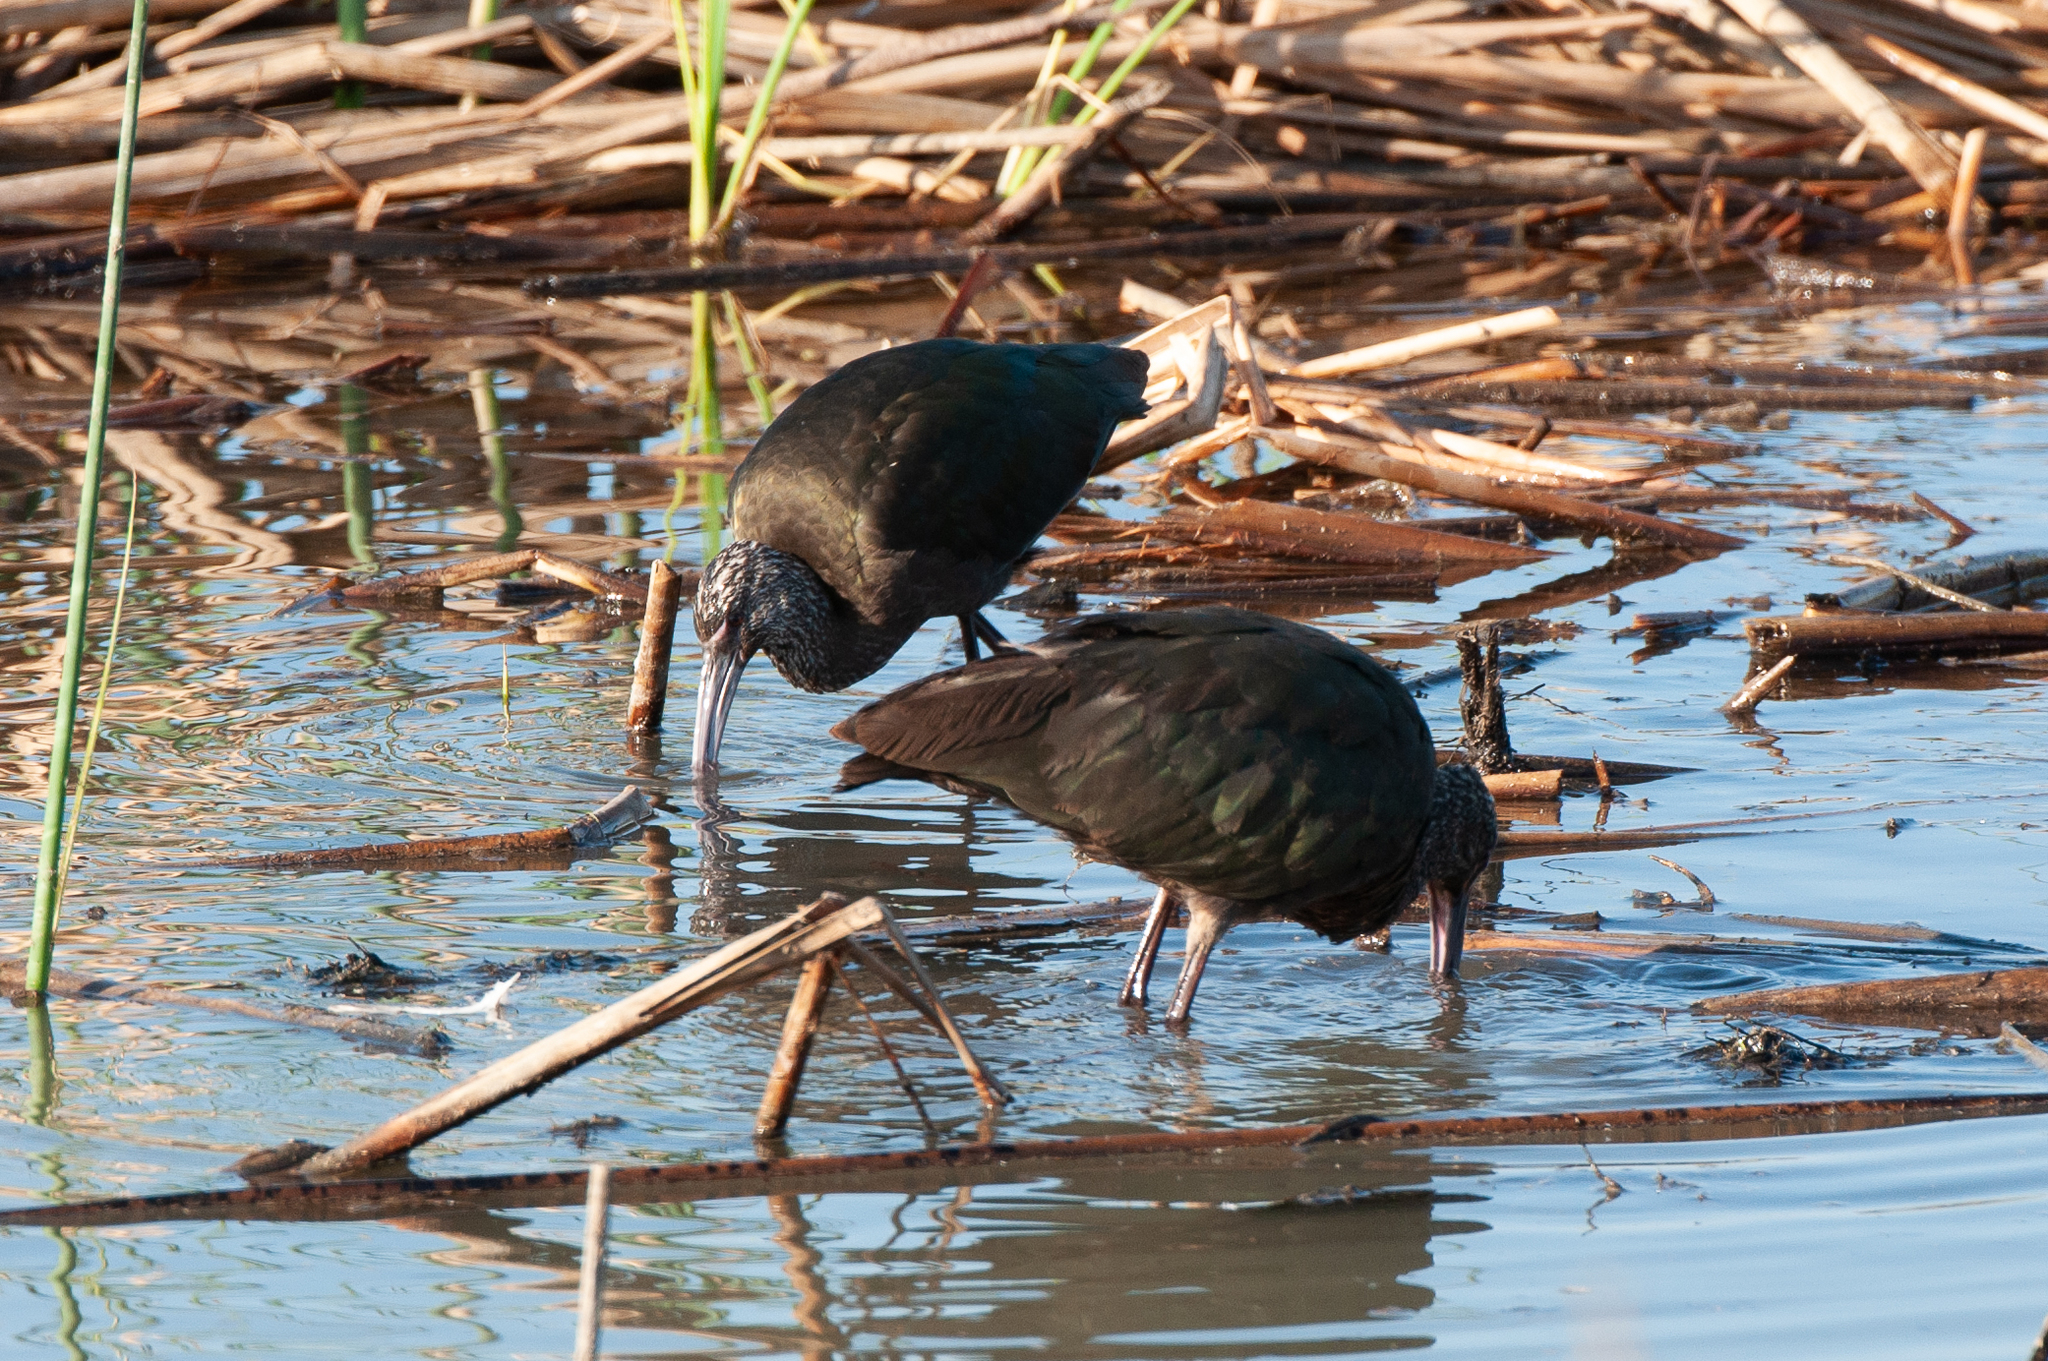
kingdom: Animalia
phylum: Chordata
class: Aves
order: Pelecaniformes
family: Threskiornithidae
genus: Plegadis
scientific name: Plegadis chihi
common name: White-faced ibis
